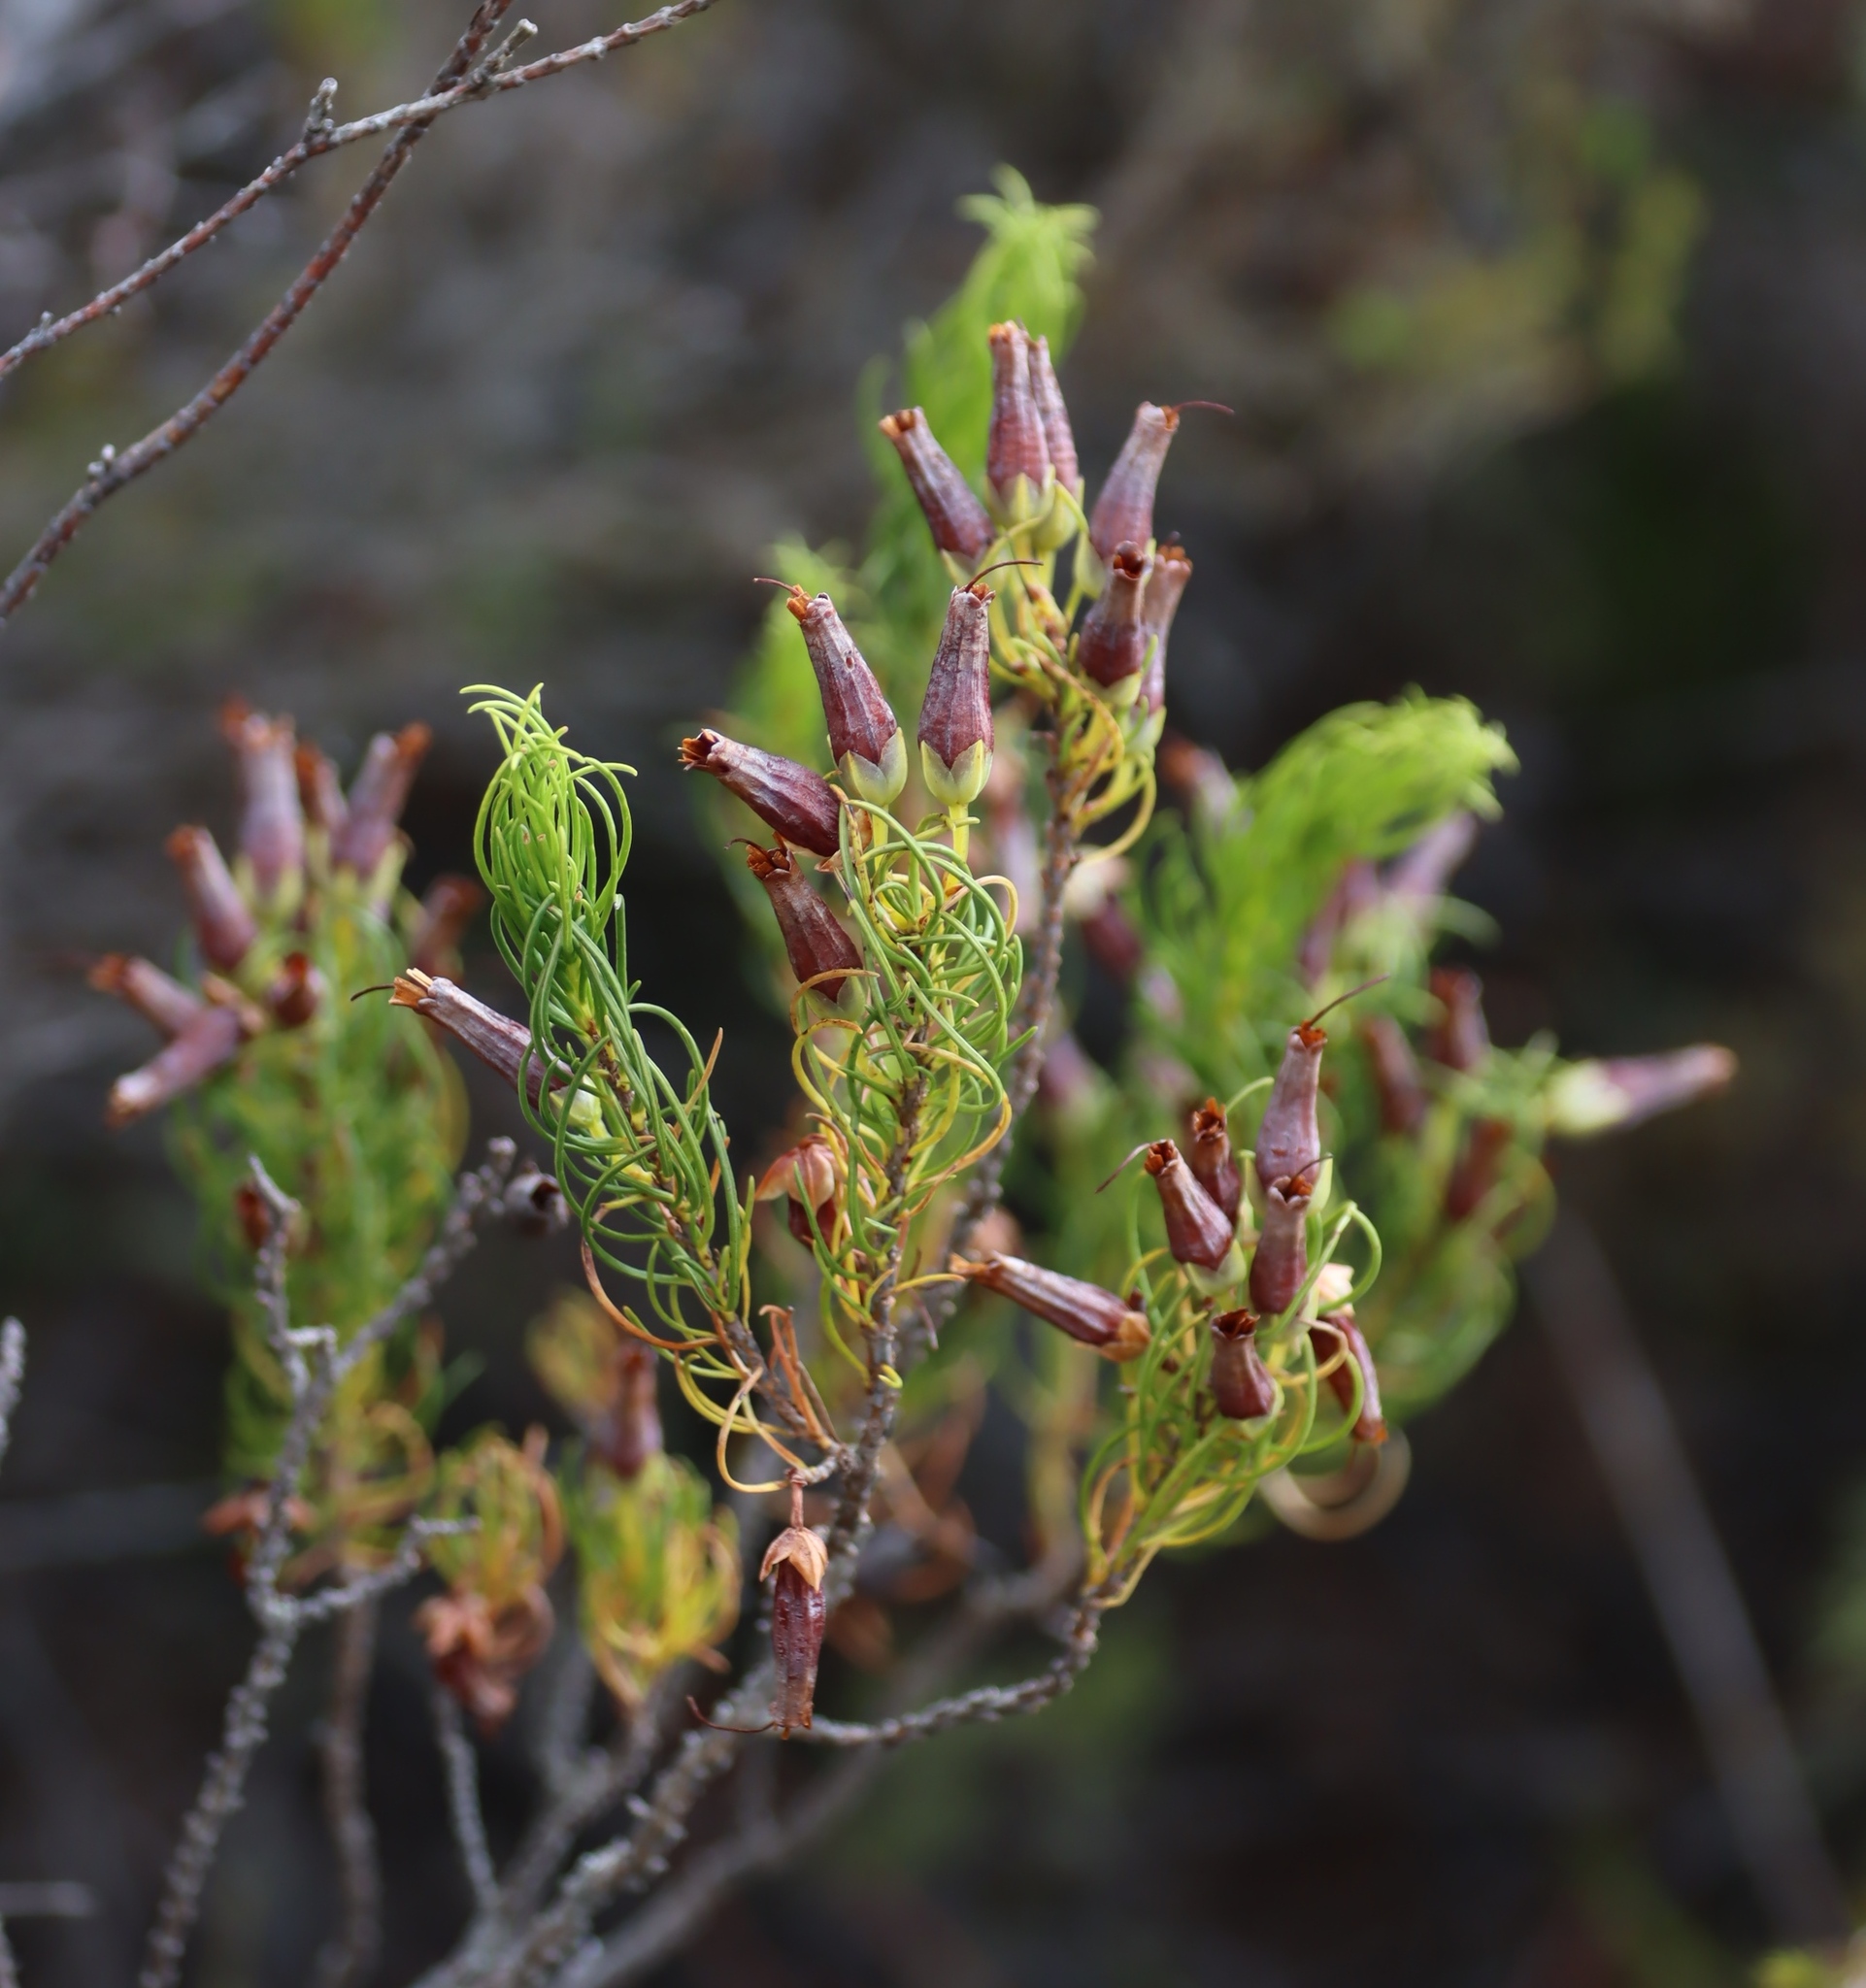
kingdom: Plantae
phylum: Tracheophyta
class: Magnoliopsida
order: Ericales
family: Ericaceae
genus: Erica
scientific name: Erica plukenetii
